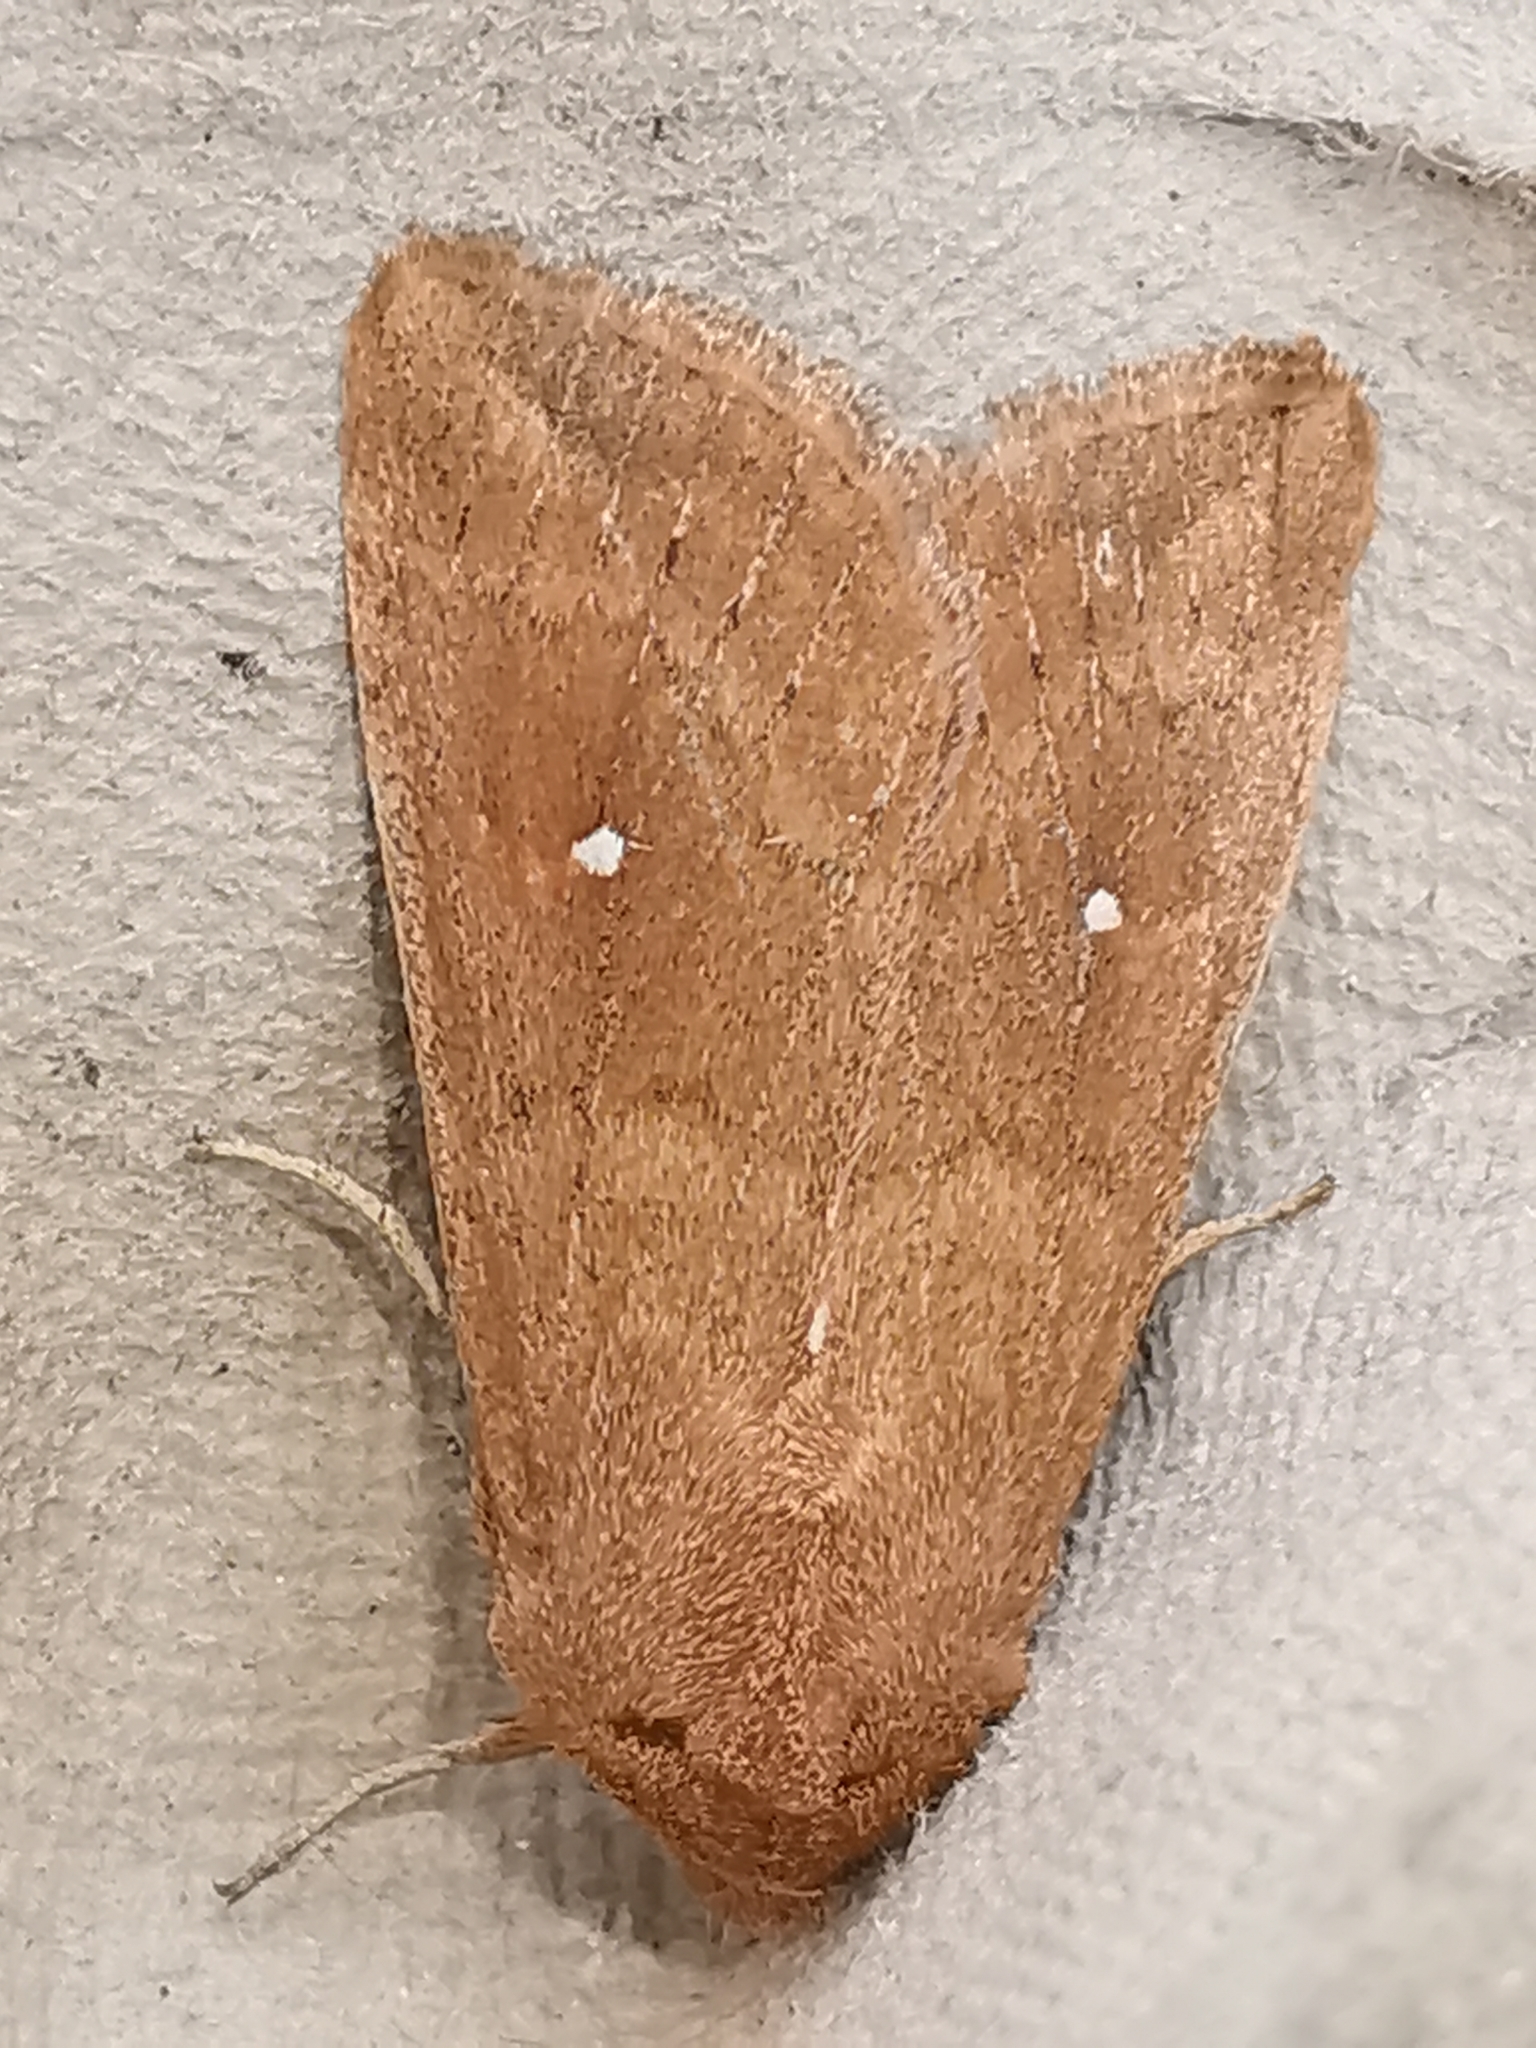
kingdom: Animalia
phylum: Arthropoda
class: Insecta
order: Lepidoptera
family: Noctuidae
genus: Mythimna
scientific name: Mythimna albipuncta
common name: White-point
